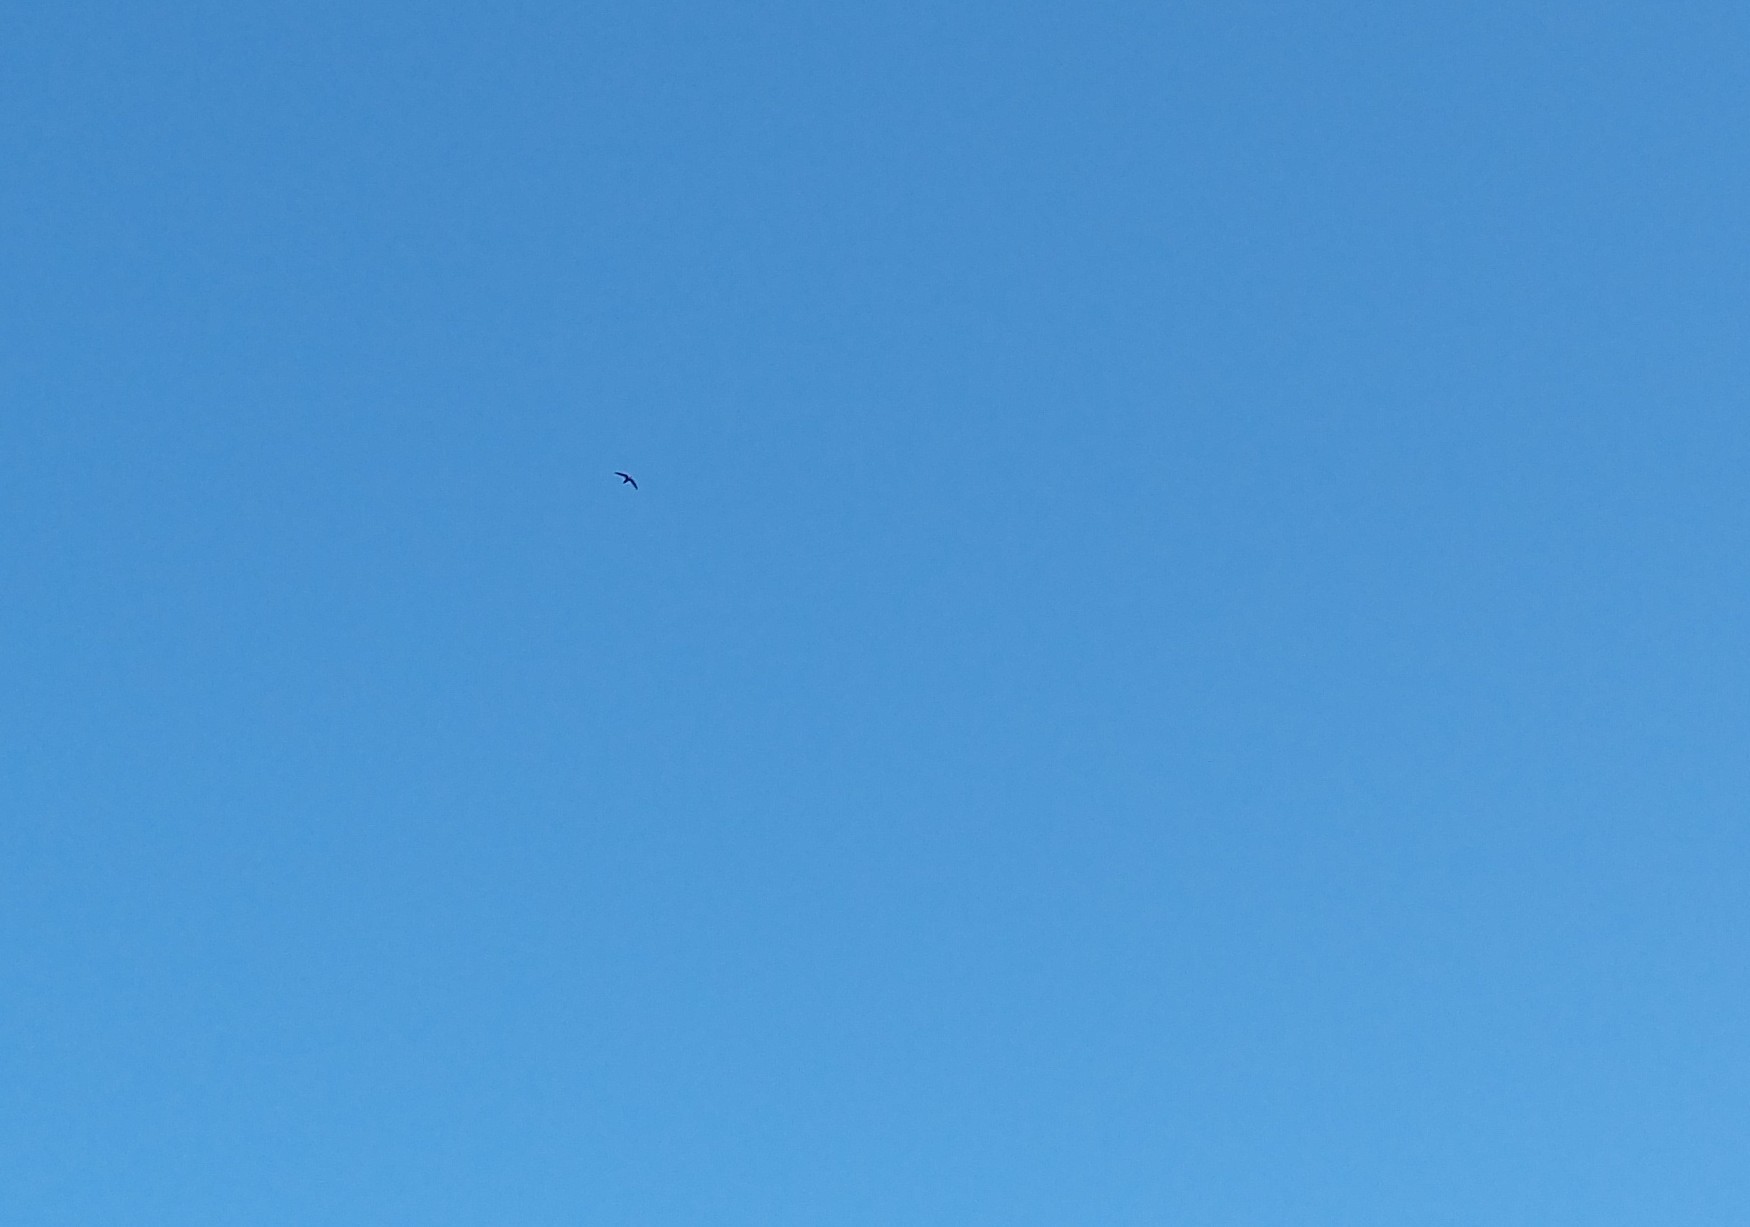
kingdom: Animalia
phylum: Chordata
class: Aves
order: Apodiformes
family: Apodidae
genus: Chaetura
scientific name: Chaetura pelagica
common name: Chimney swift
